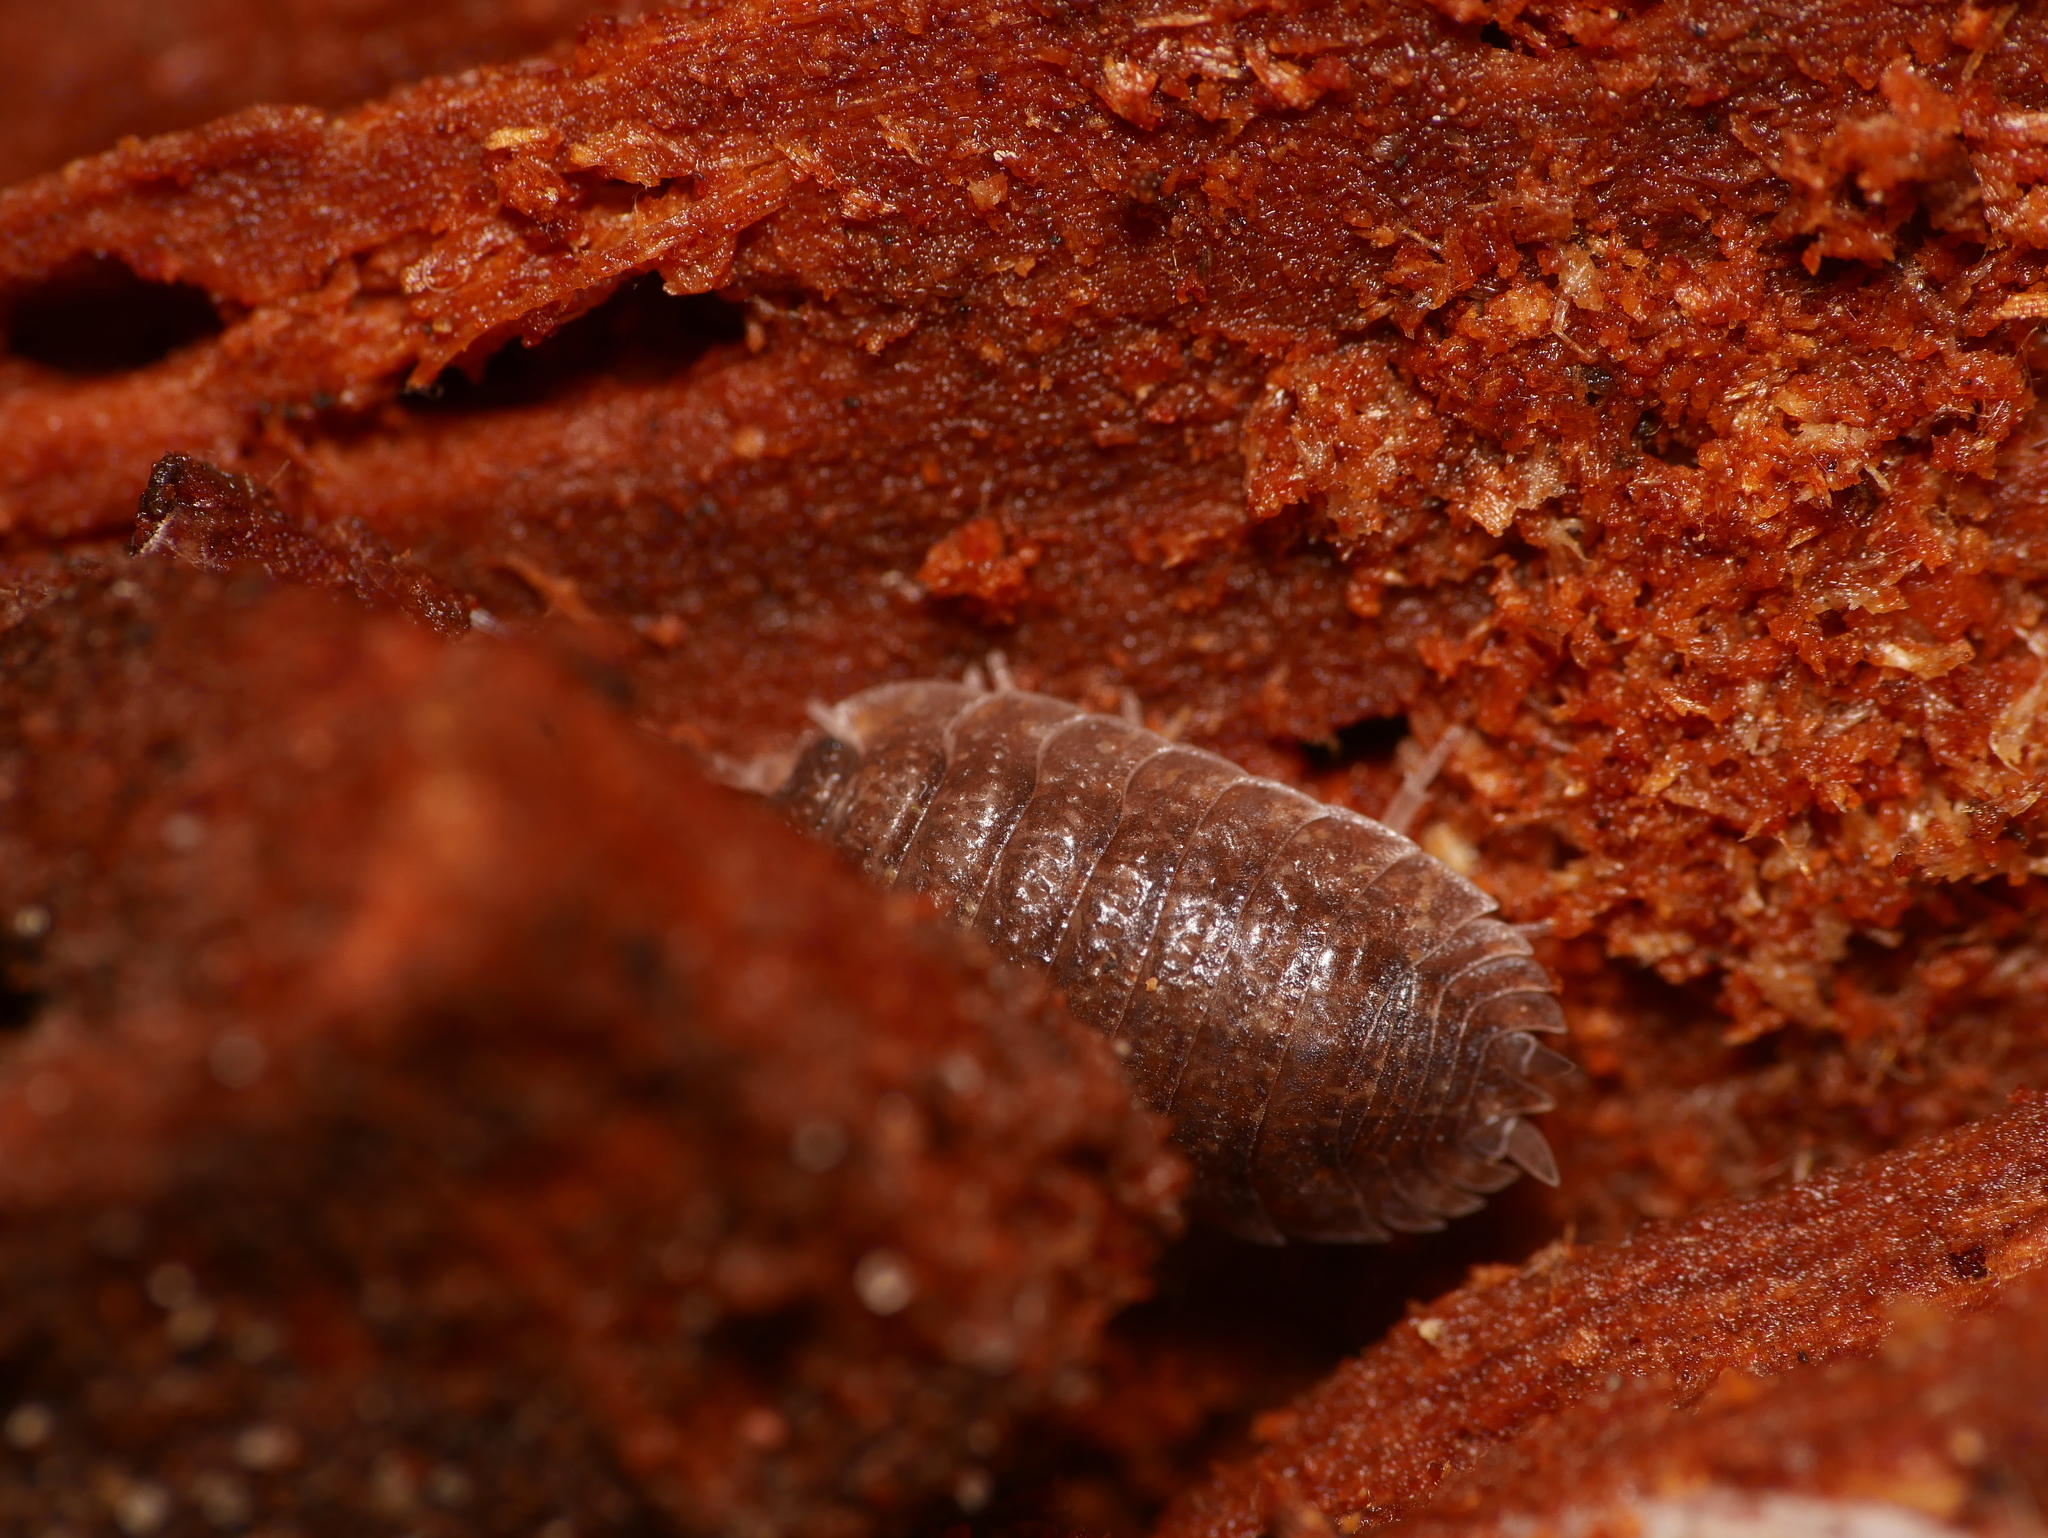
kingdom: Animalia
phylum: Arthropoda
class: Malacostraca
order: Isopoda
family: Porcellionidae
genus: Porcellio
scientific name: Porcellio scaber
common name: Common rough woodlouse
